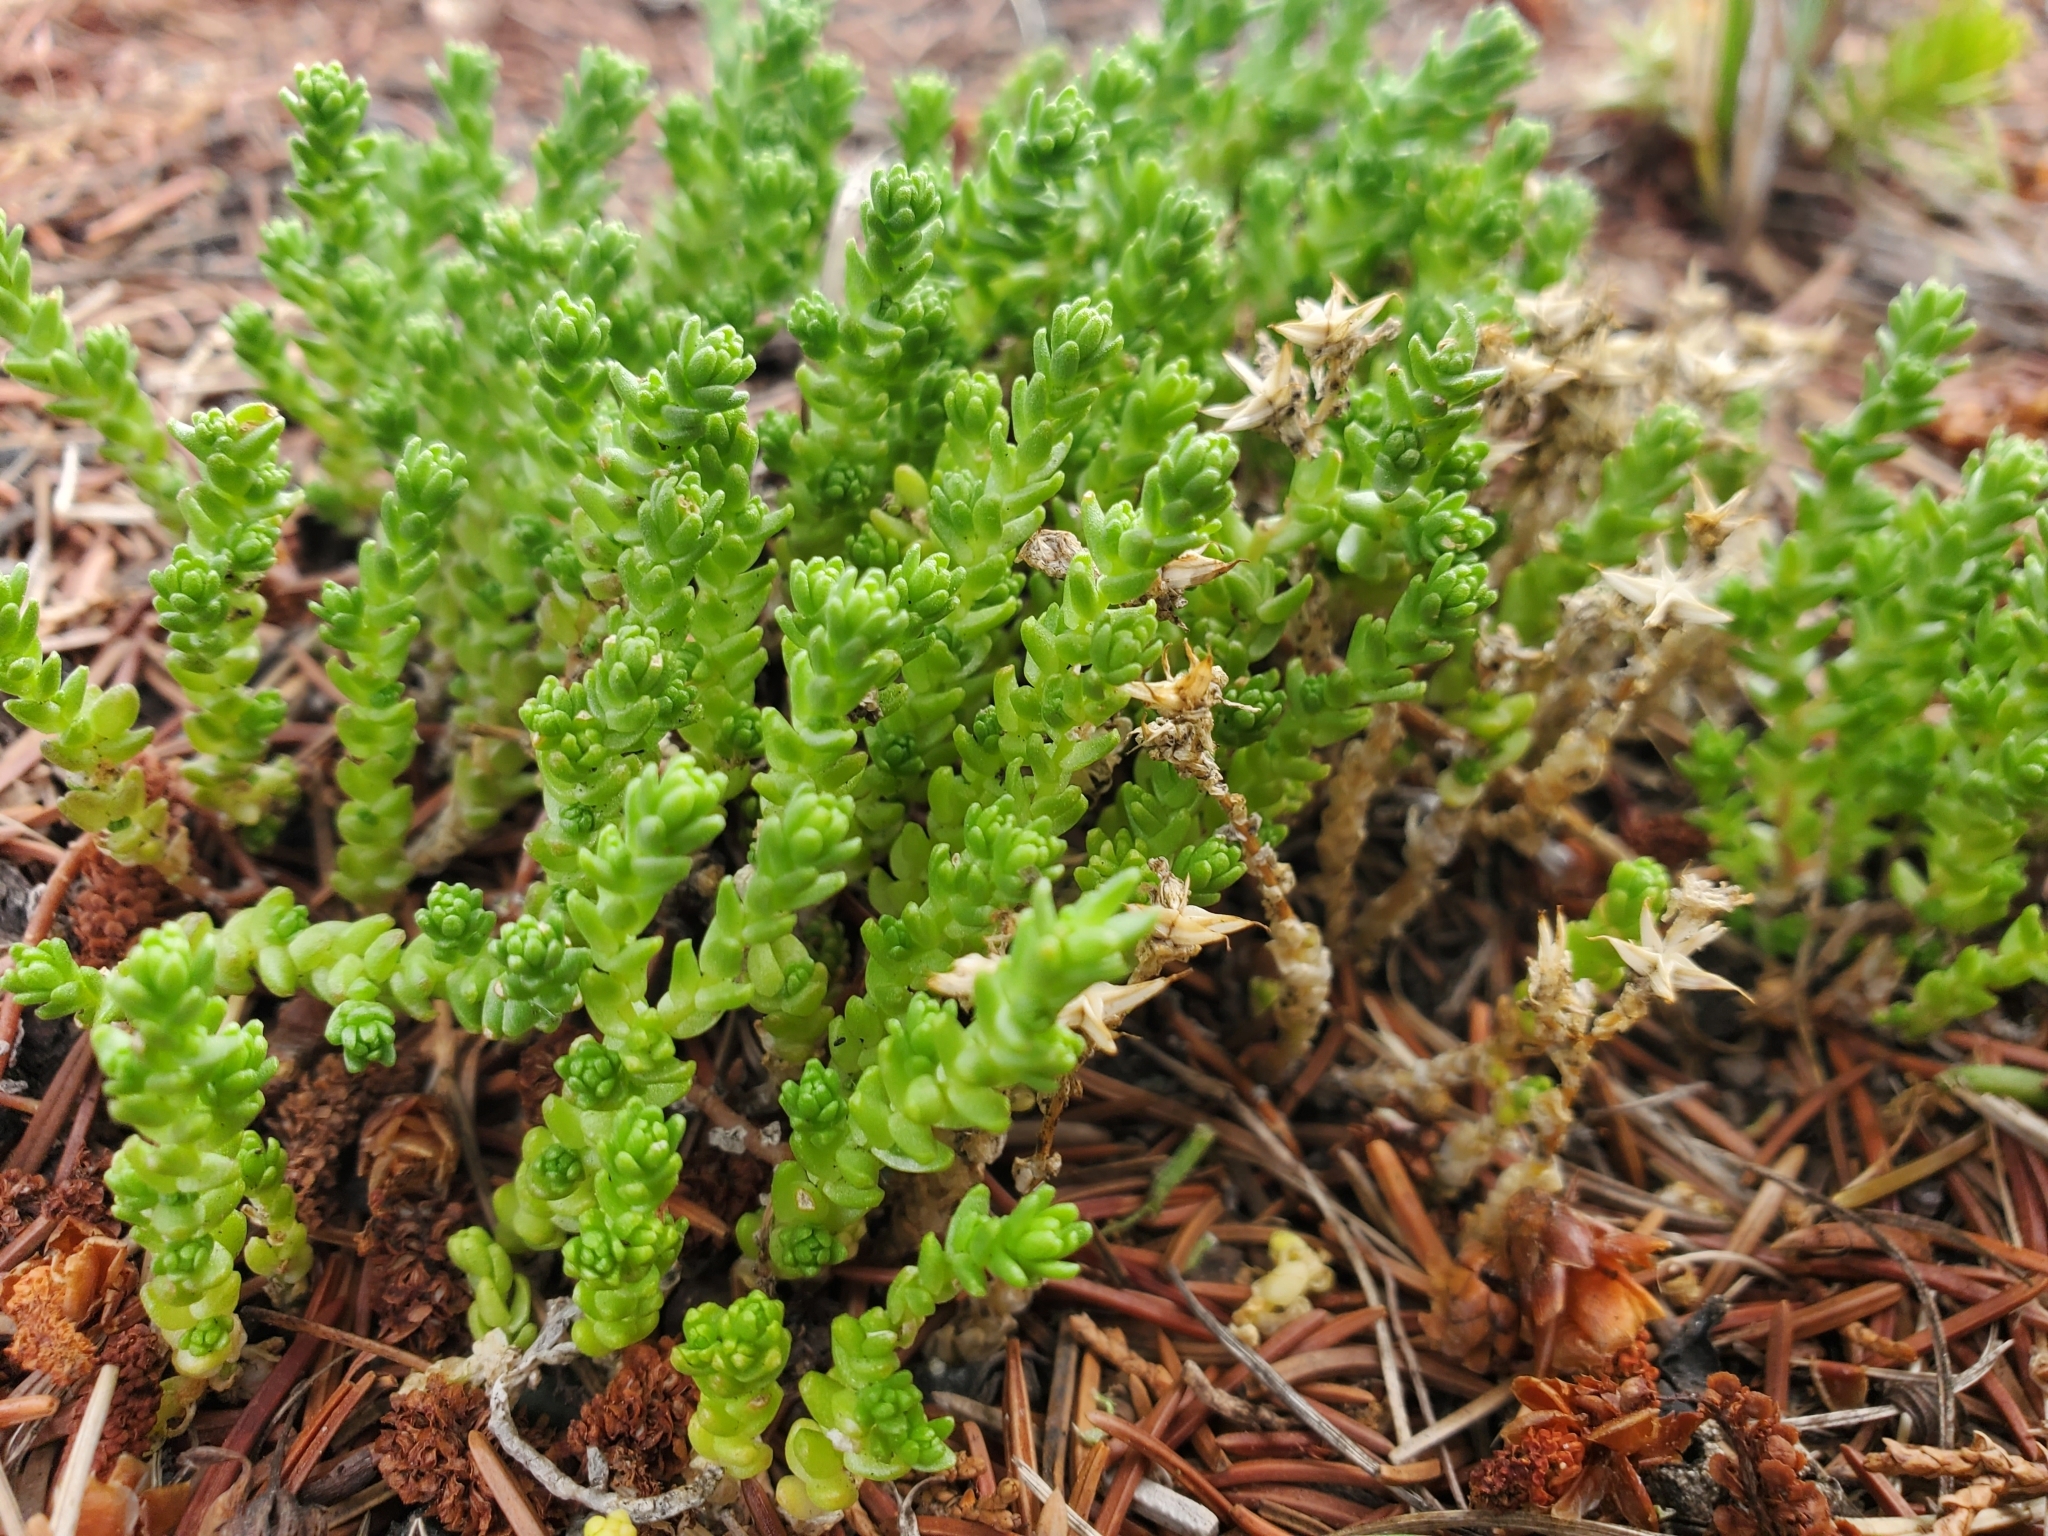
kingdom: Plantae
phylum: Tracheophyta
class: Magnoliopsida
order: Saxifragales
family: Crassulaceae
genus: Sedum
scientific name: Sedum acre
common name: Biting stonecrop
